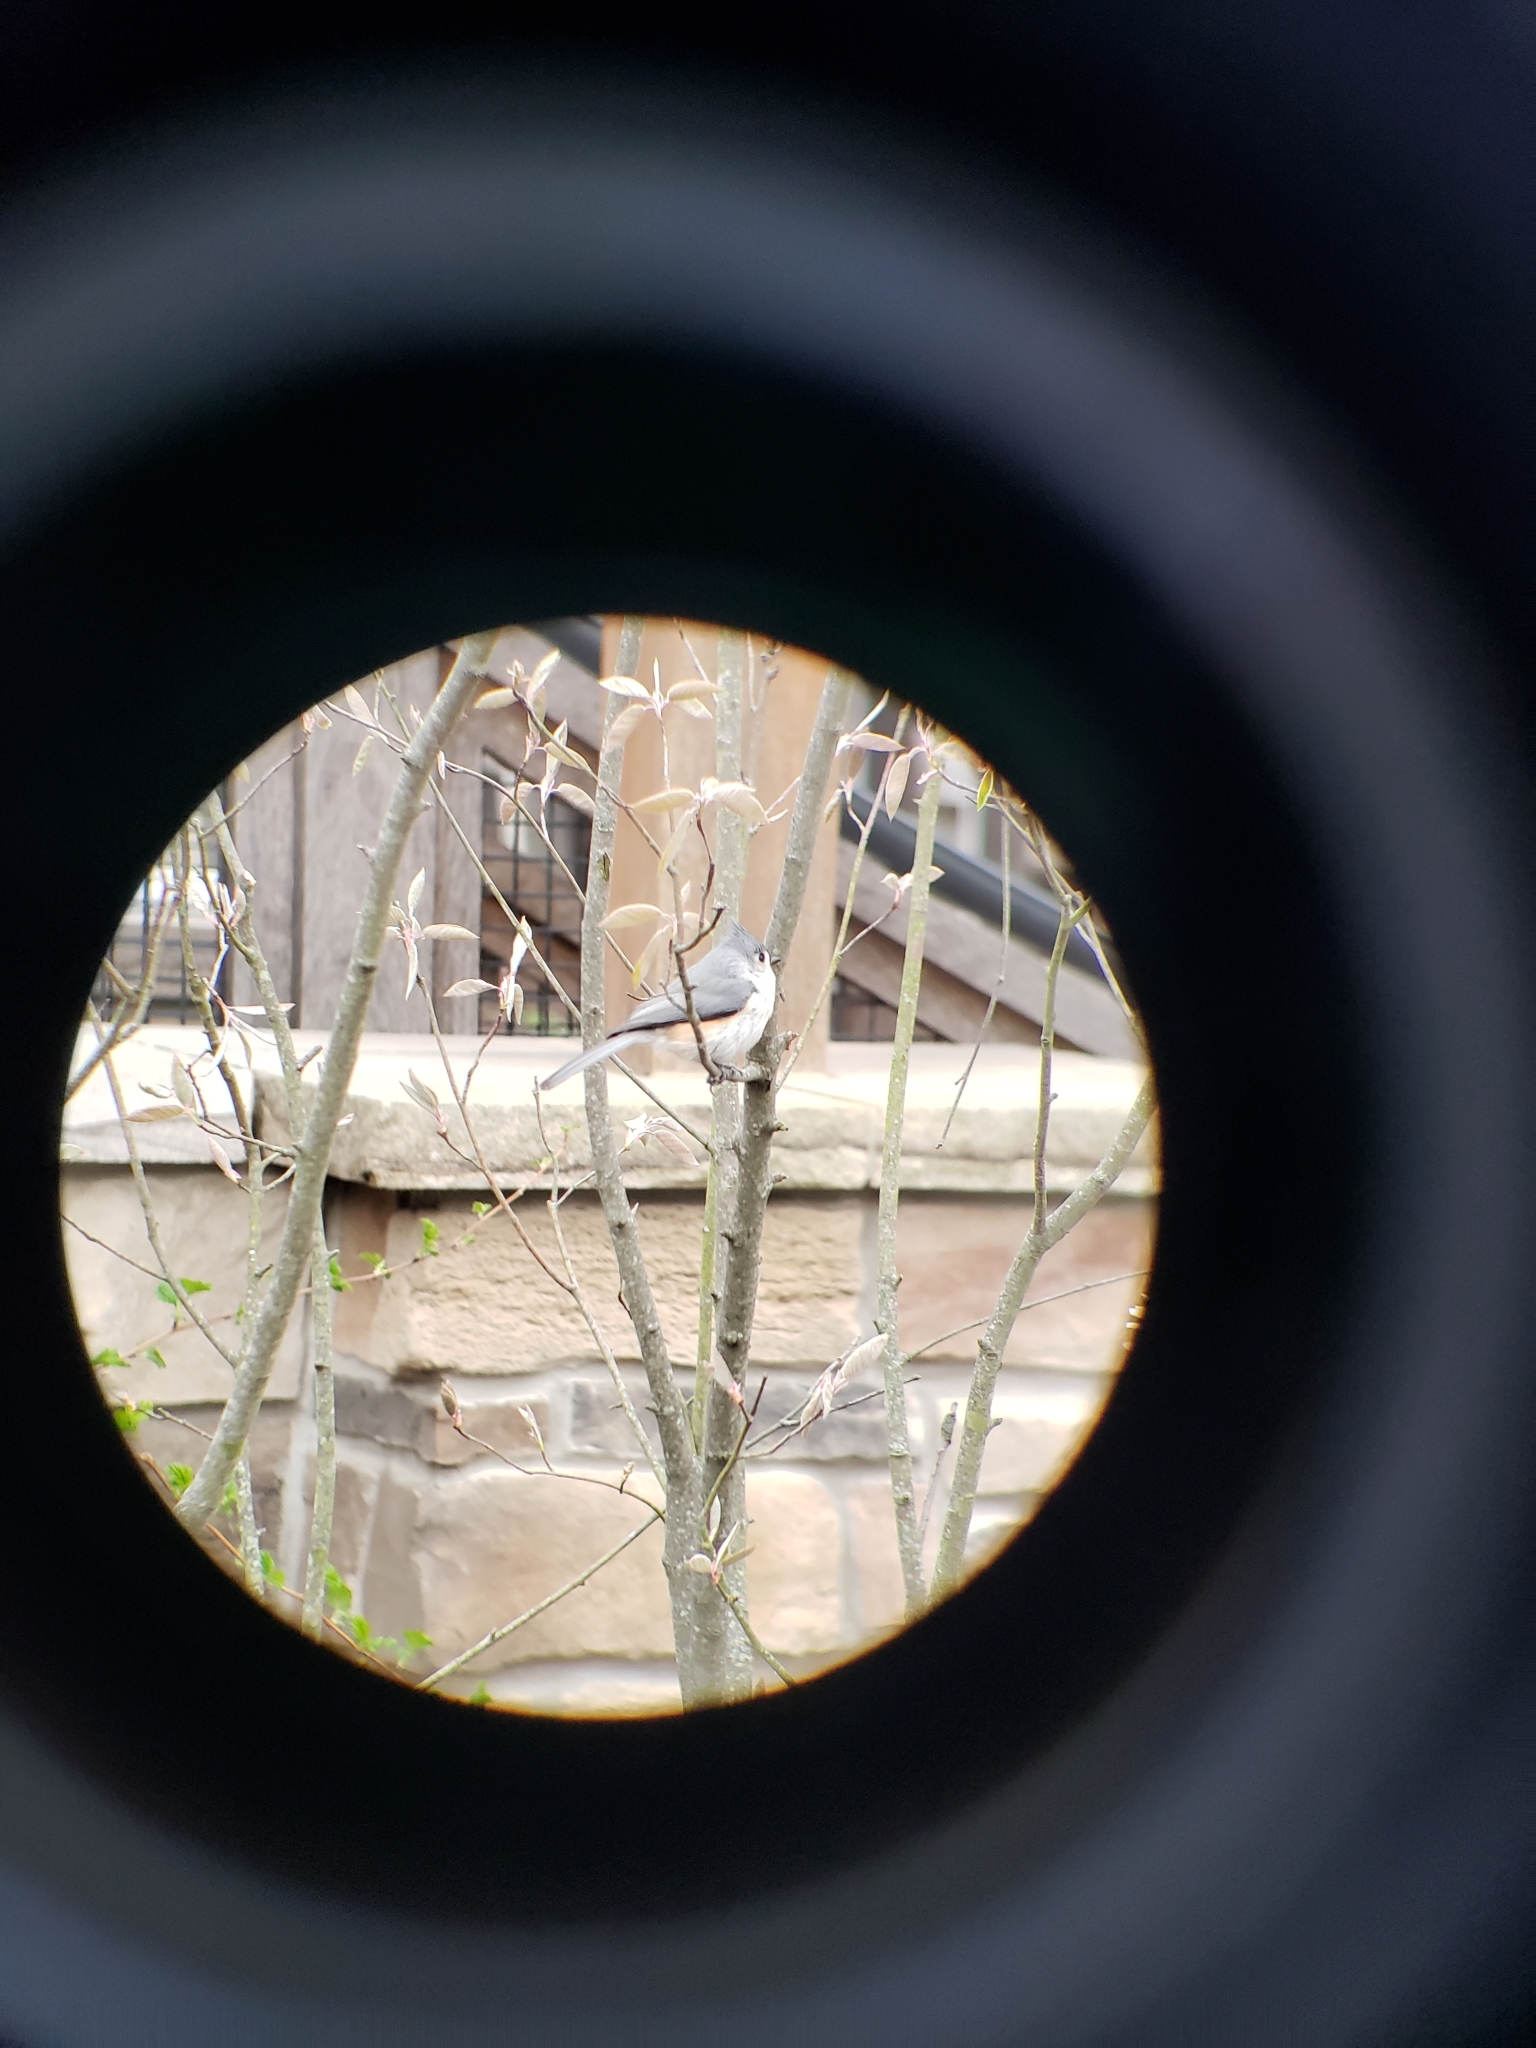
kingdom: Animalia
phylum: Chordata
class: Aves
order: Passeriformes
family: Paridae
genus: Baeolophus
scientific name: Baeolophus bicolor
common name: Tufted titmouse
